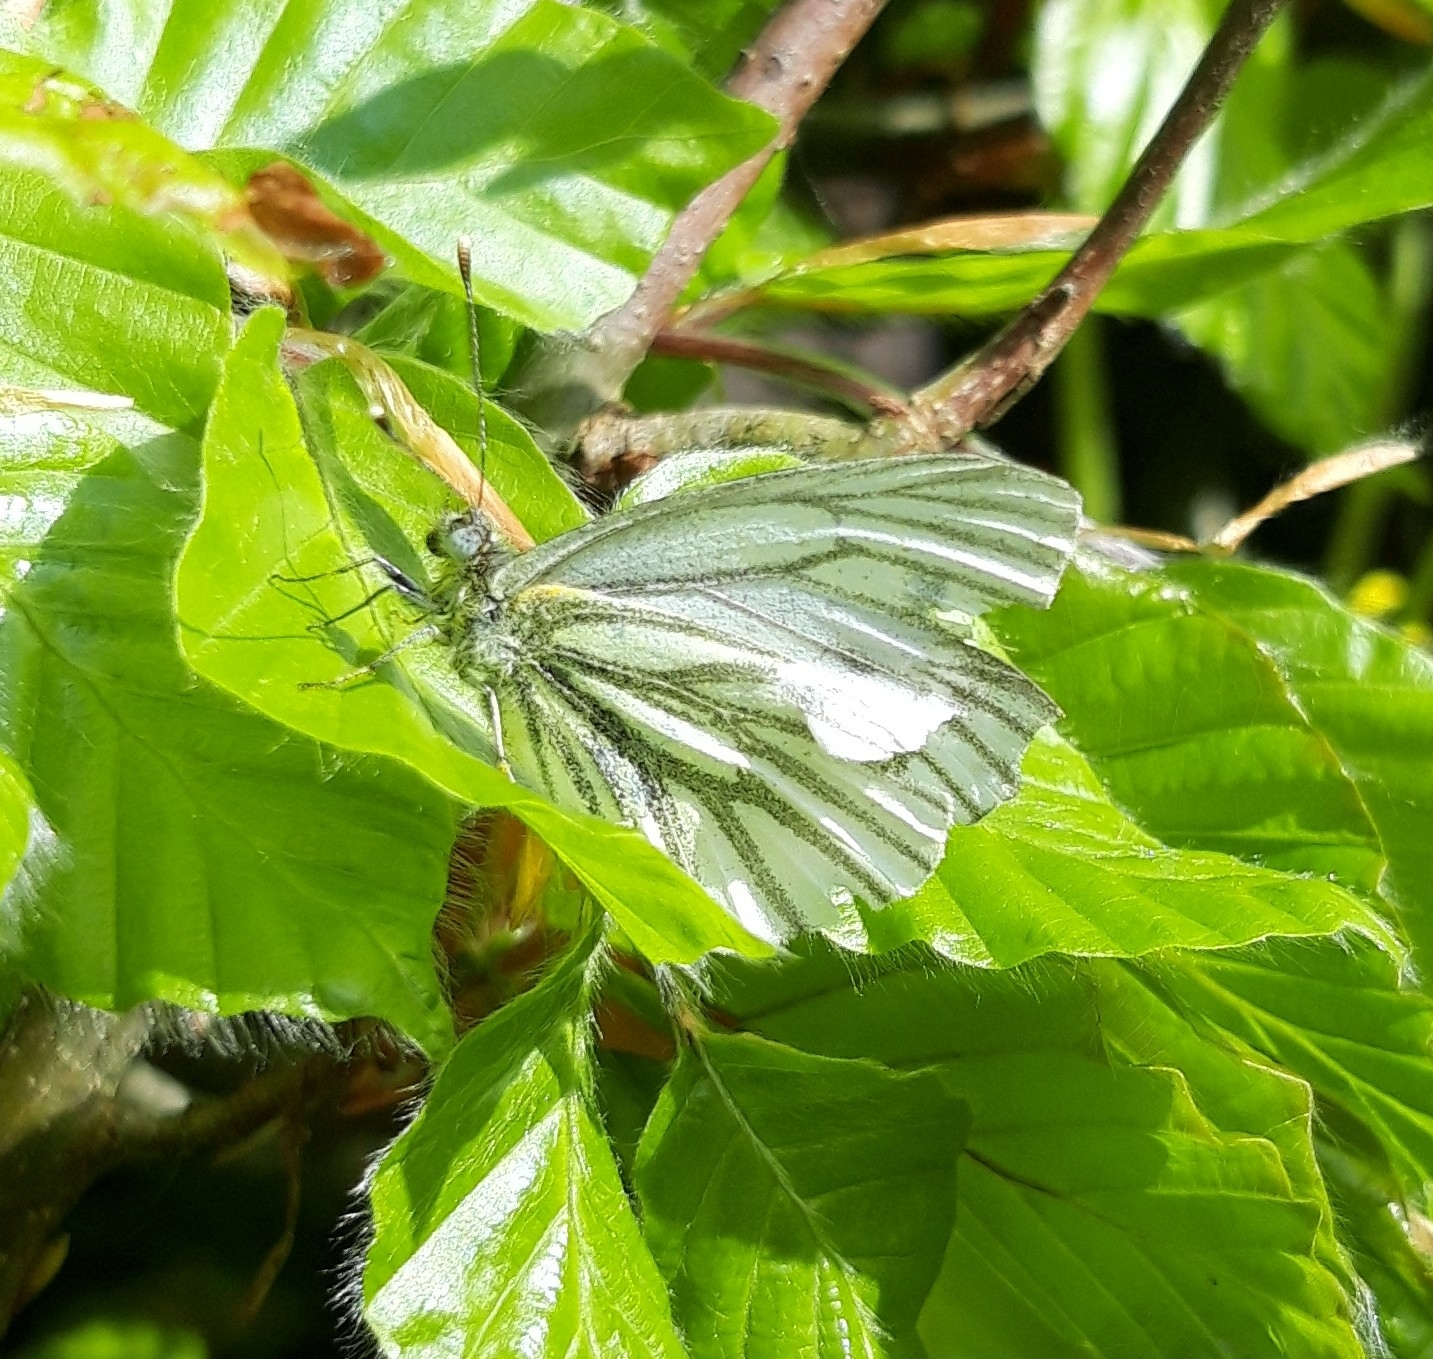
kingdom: Animalia
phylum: Arthropoda
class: Insecta
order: Lepidoptera
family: Pieridae
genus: Pieris
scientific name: Pieris napi
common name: Green-veined white
